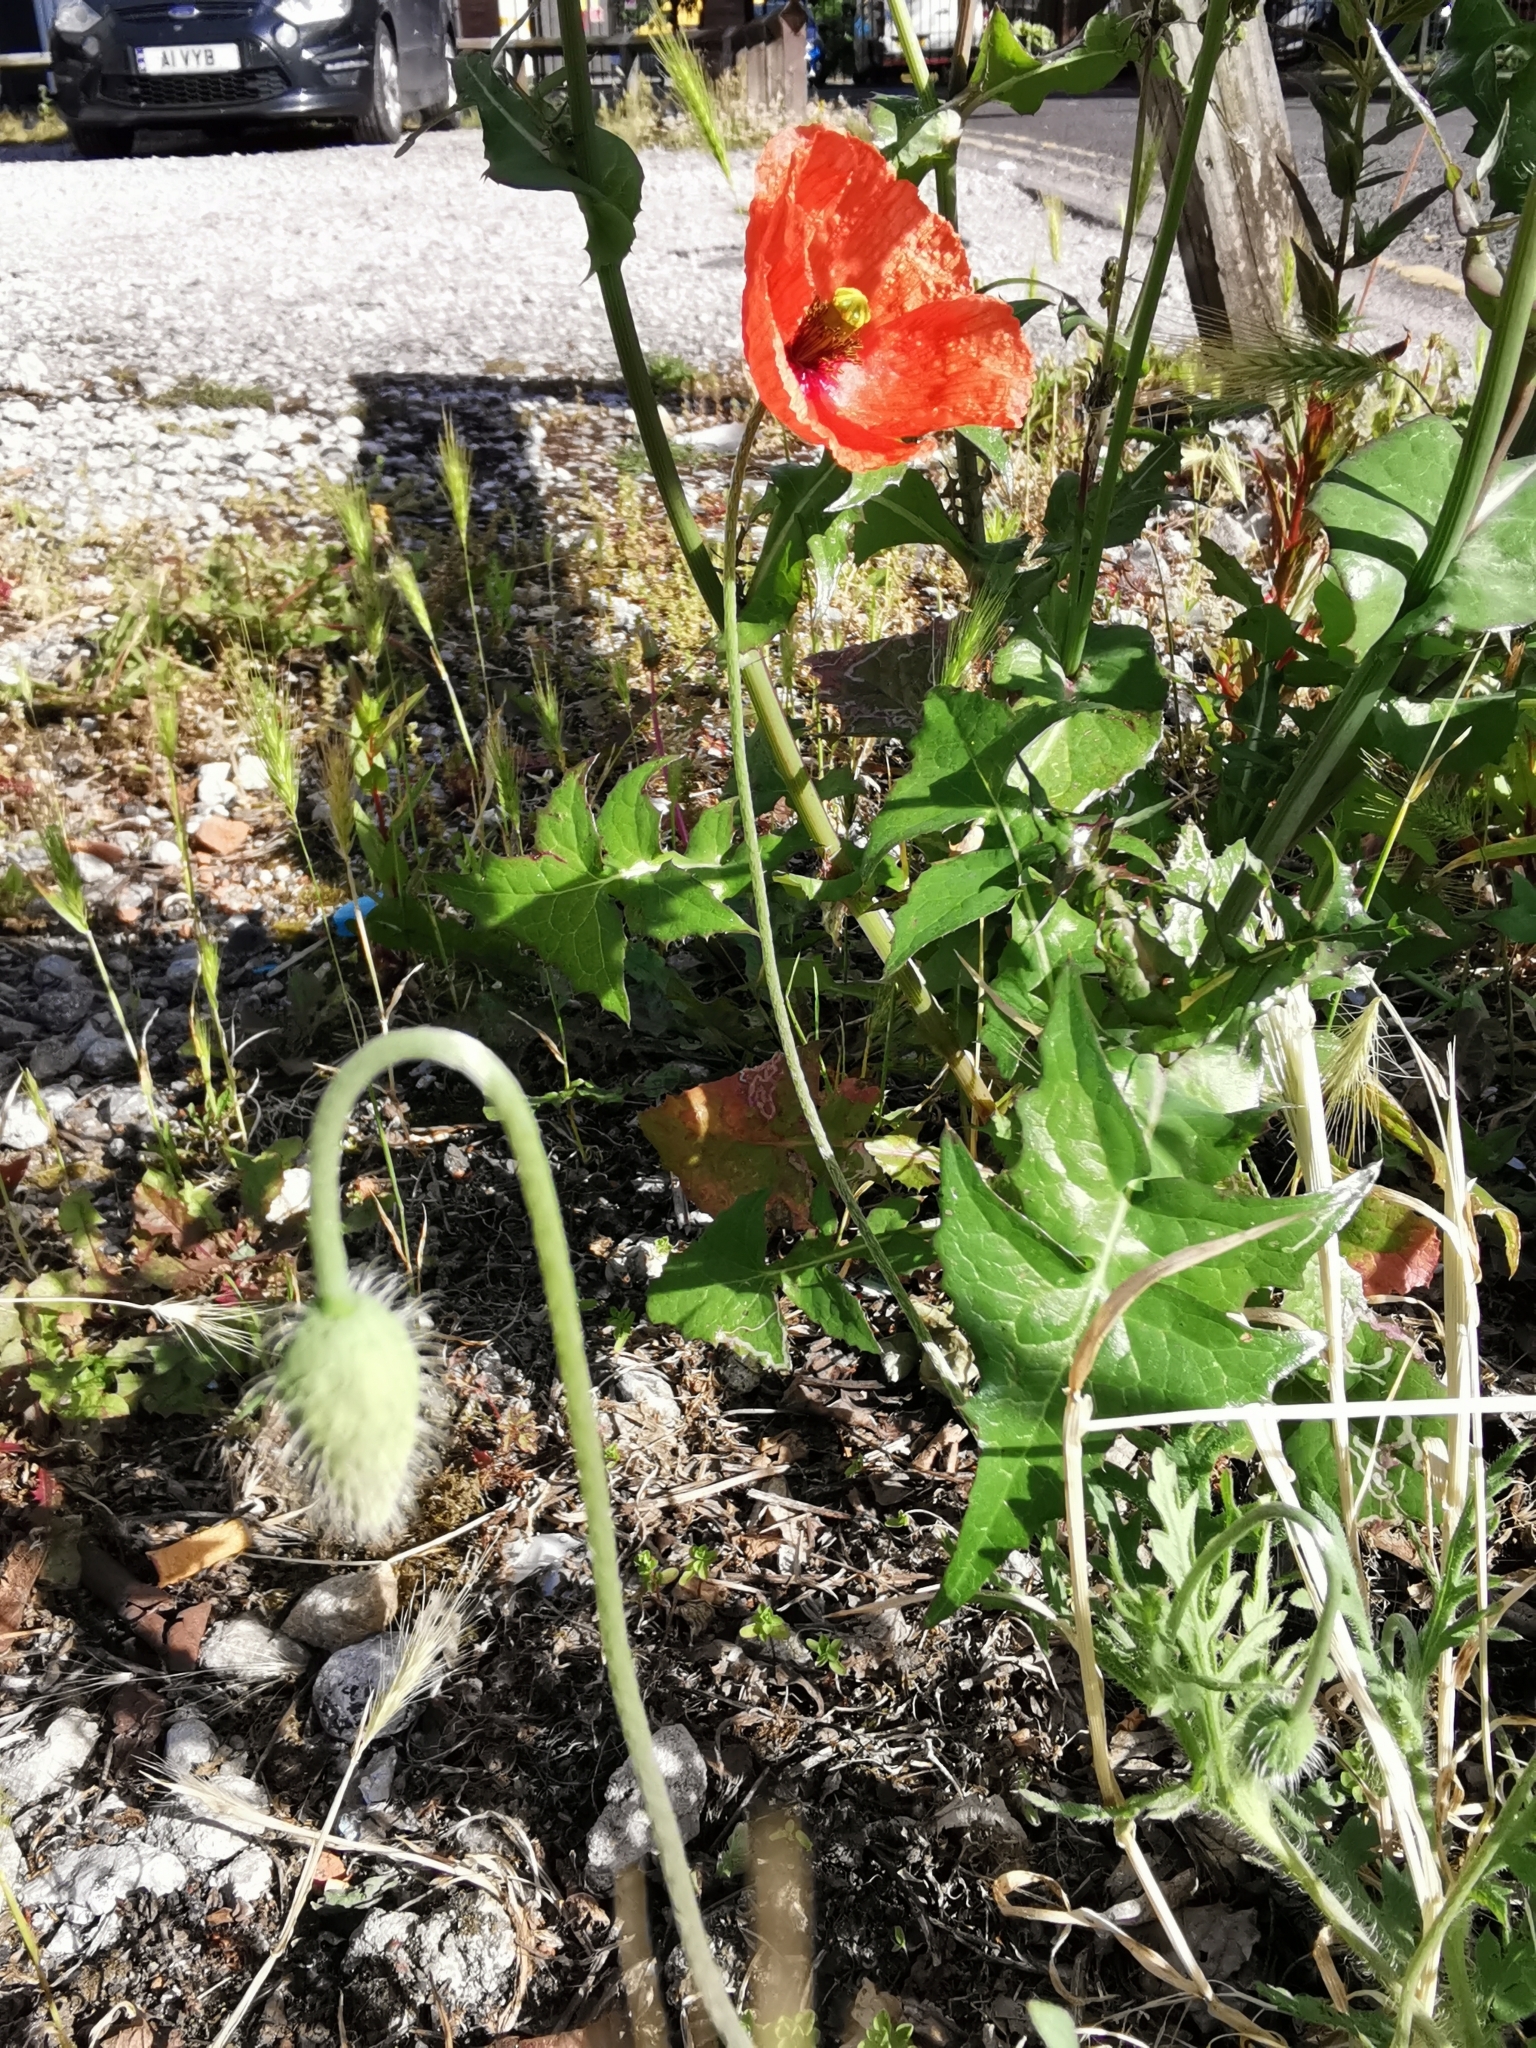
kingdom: Plantae
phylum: Tracheophyta
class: Magnoliopsida
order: Ranunculales
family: Papaveraceae
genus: Papaver
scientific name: Papaver dubium
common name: Long-headed poppy
